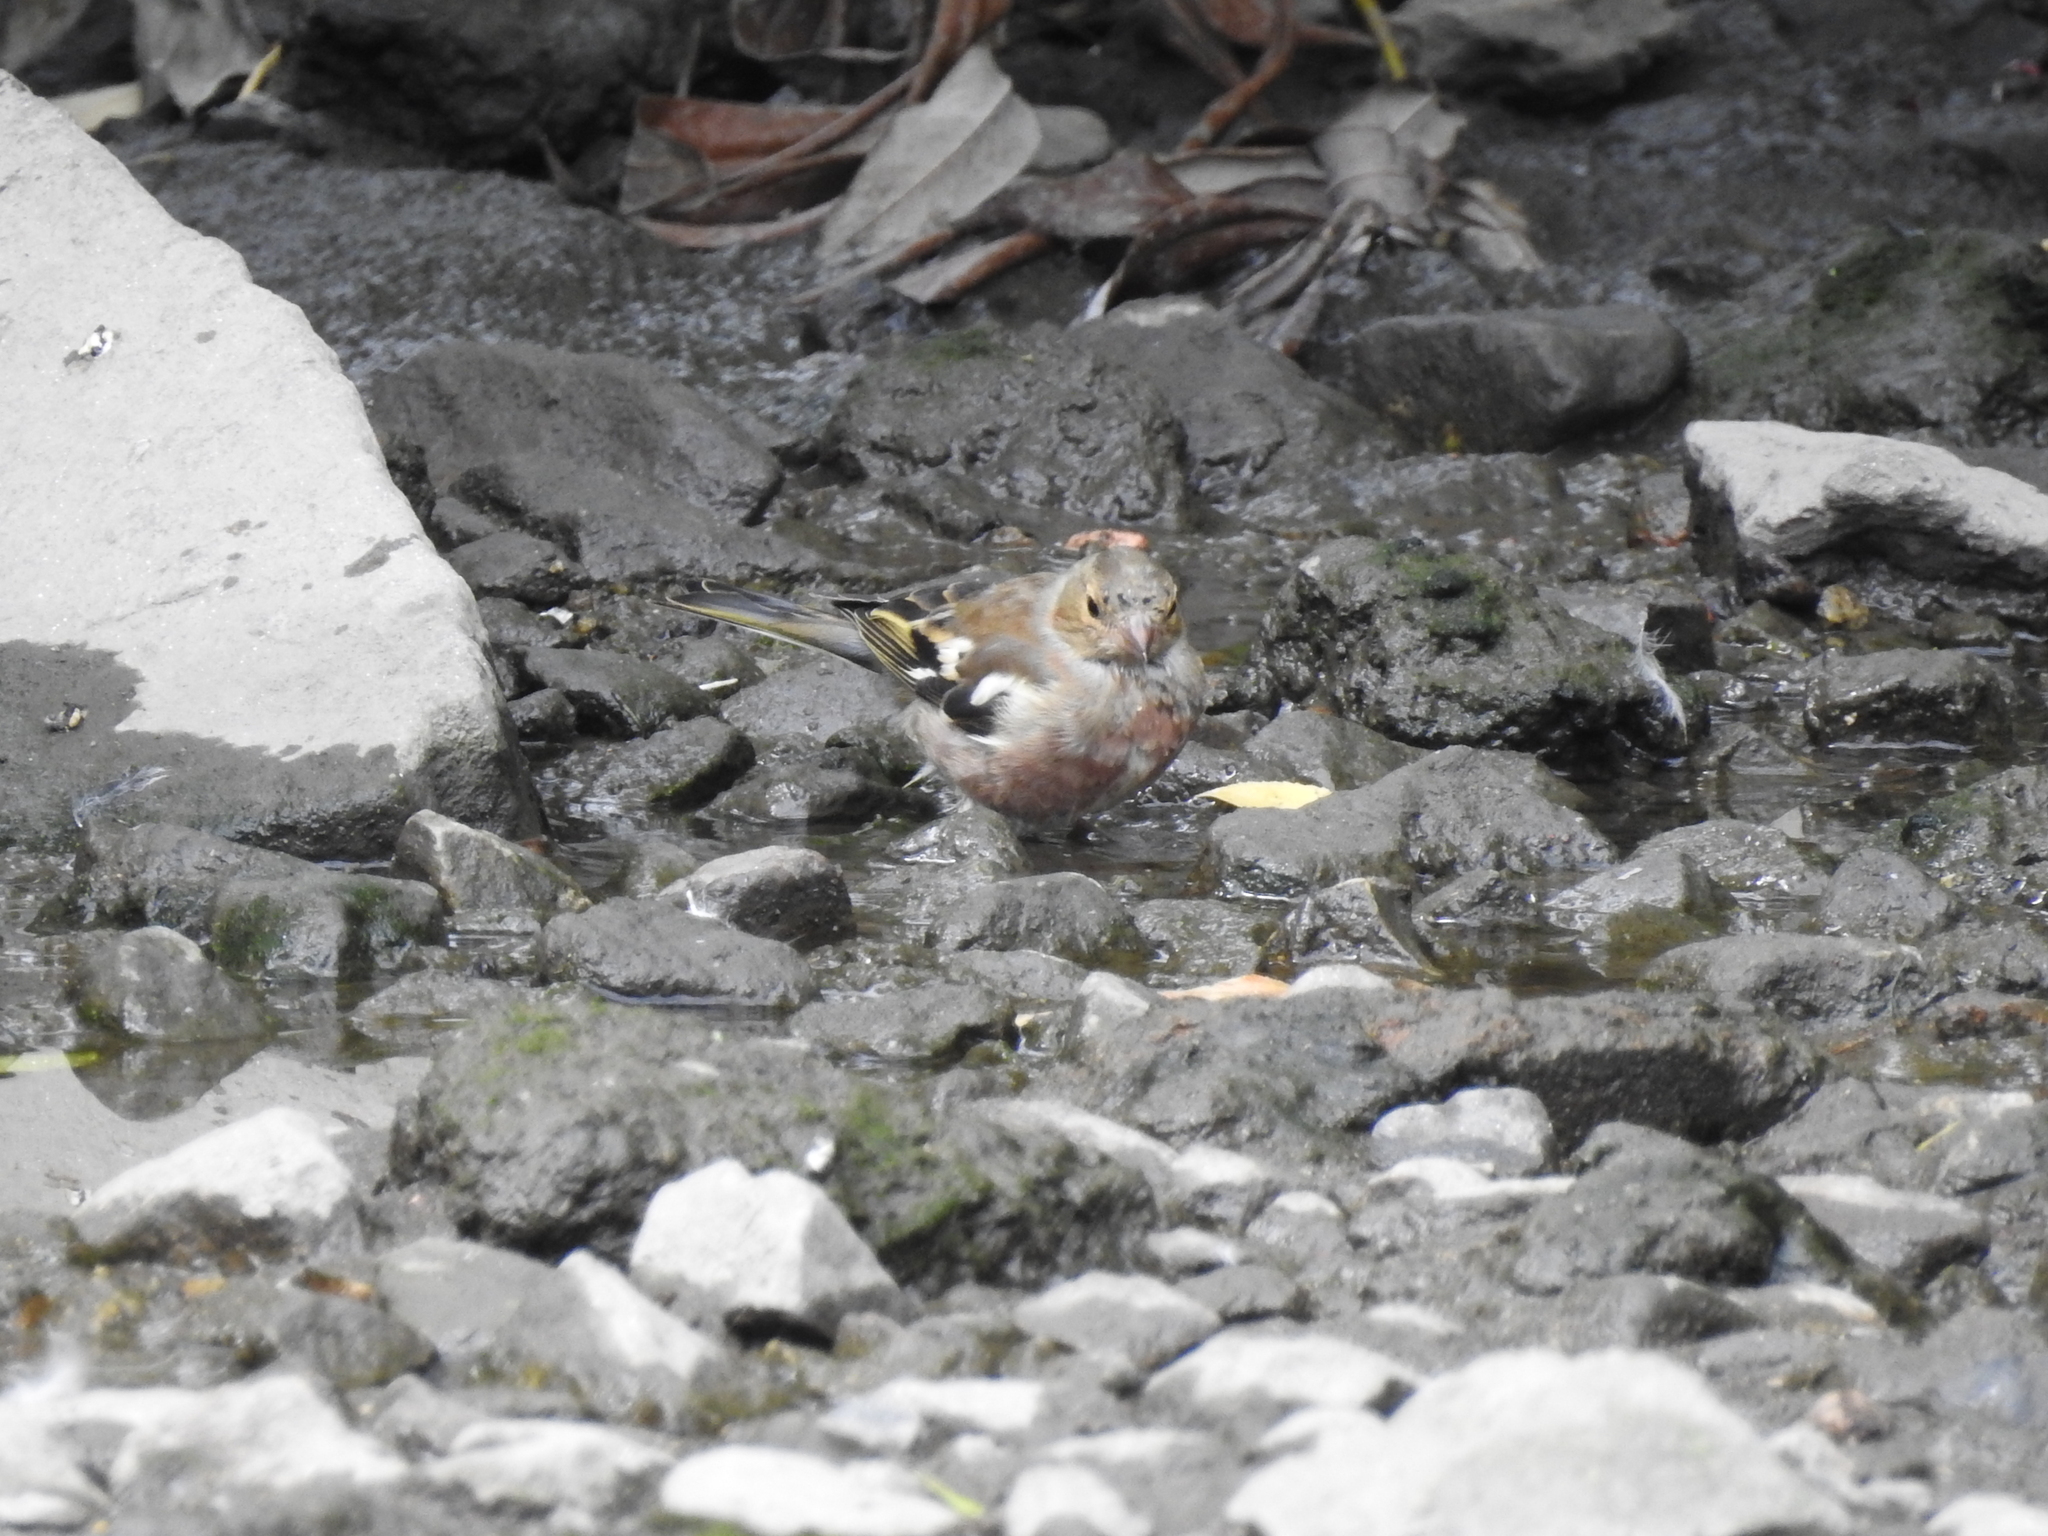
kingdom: Animalia
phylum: Chordata
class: Aves
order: Passeriformes
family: Fringillidae
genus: Fringilla
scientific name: Fringilla coelebs
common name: Common chaffinch
